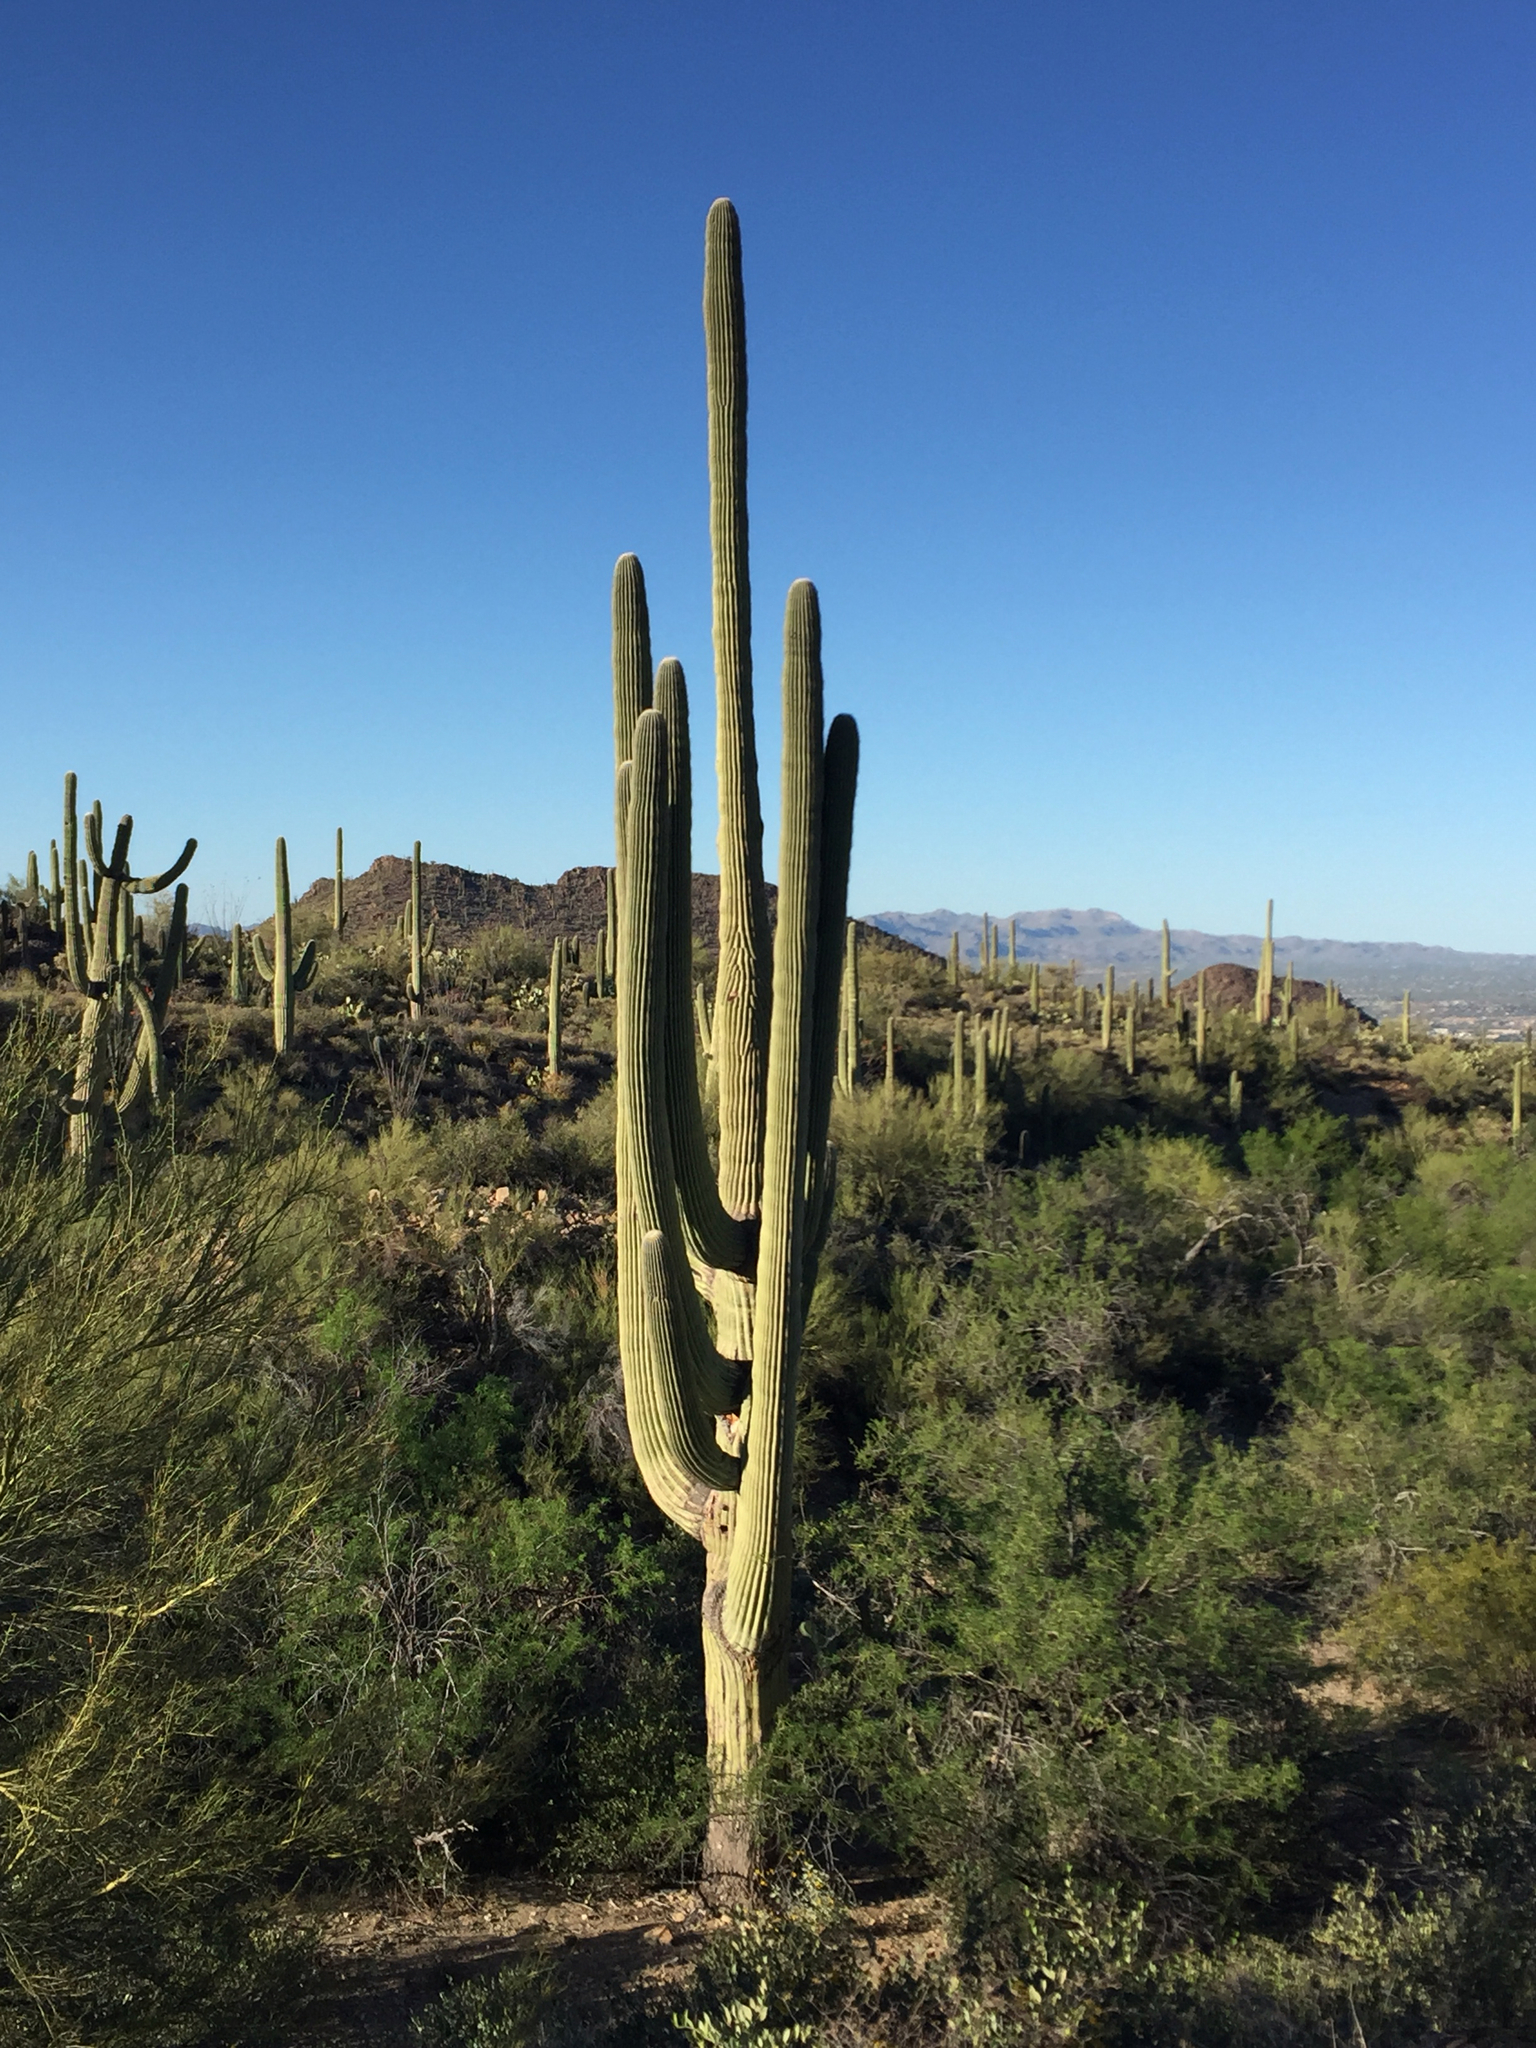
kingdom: Plantae
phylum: Tracheophyta
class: Magnoliopsida
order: Caryophyllales
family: Cactaceae
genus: Carnegiea
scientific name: Carnegiea gigantea
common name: Saguaro
